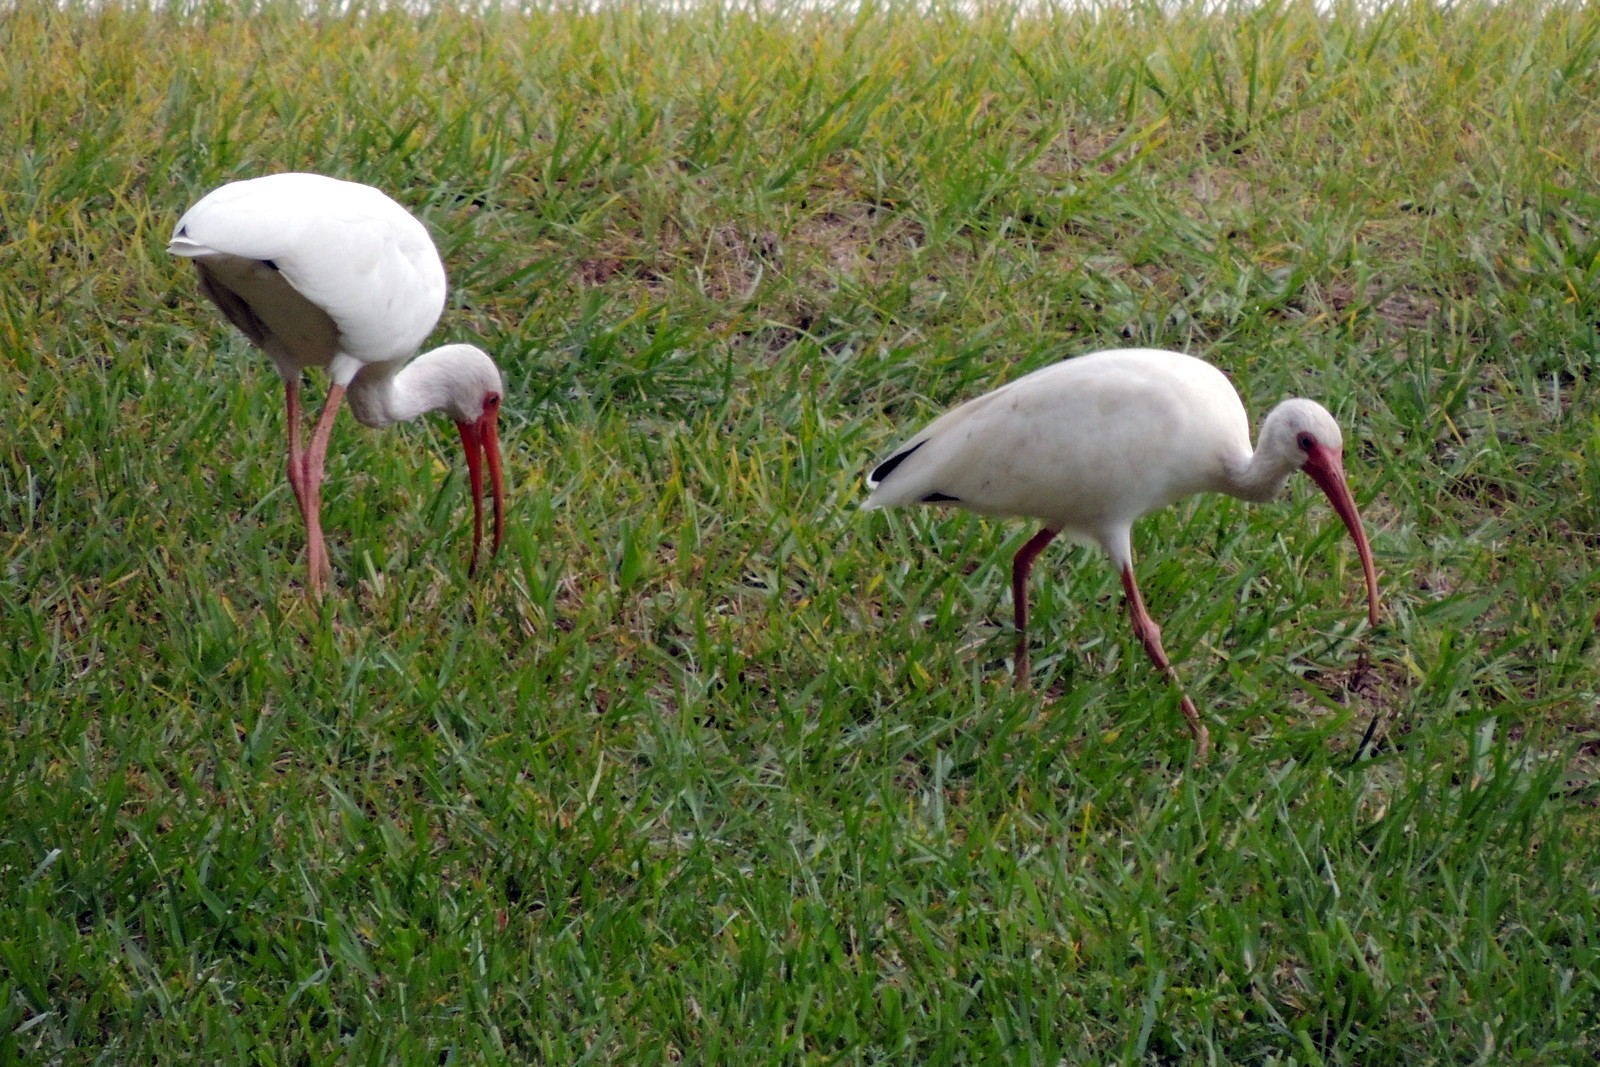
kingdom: Animalia
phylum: Chordata
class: Aves
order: Pelecaniformes
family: Threskiornithidae
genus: Eudocimus
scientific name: Eudocimus albus
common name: White ibis
